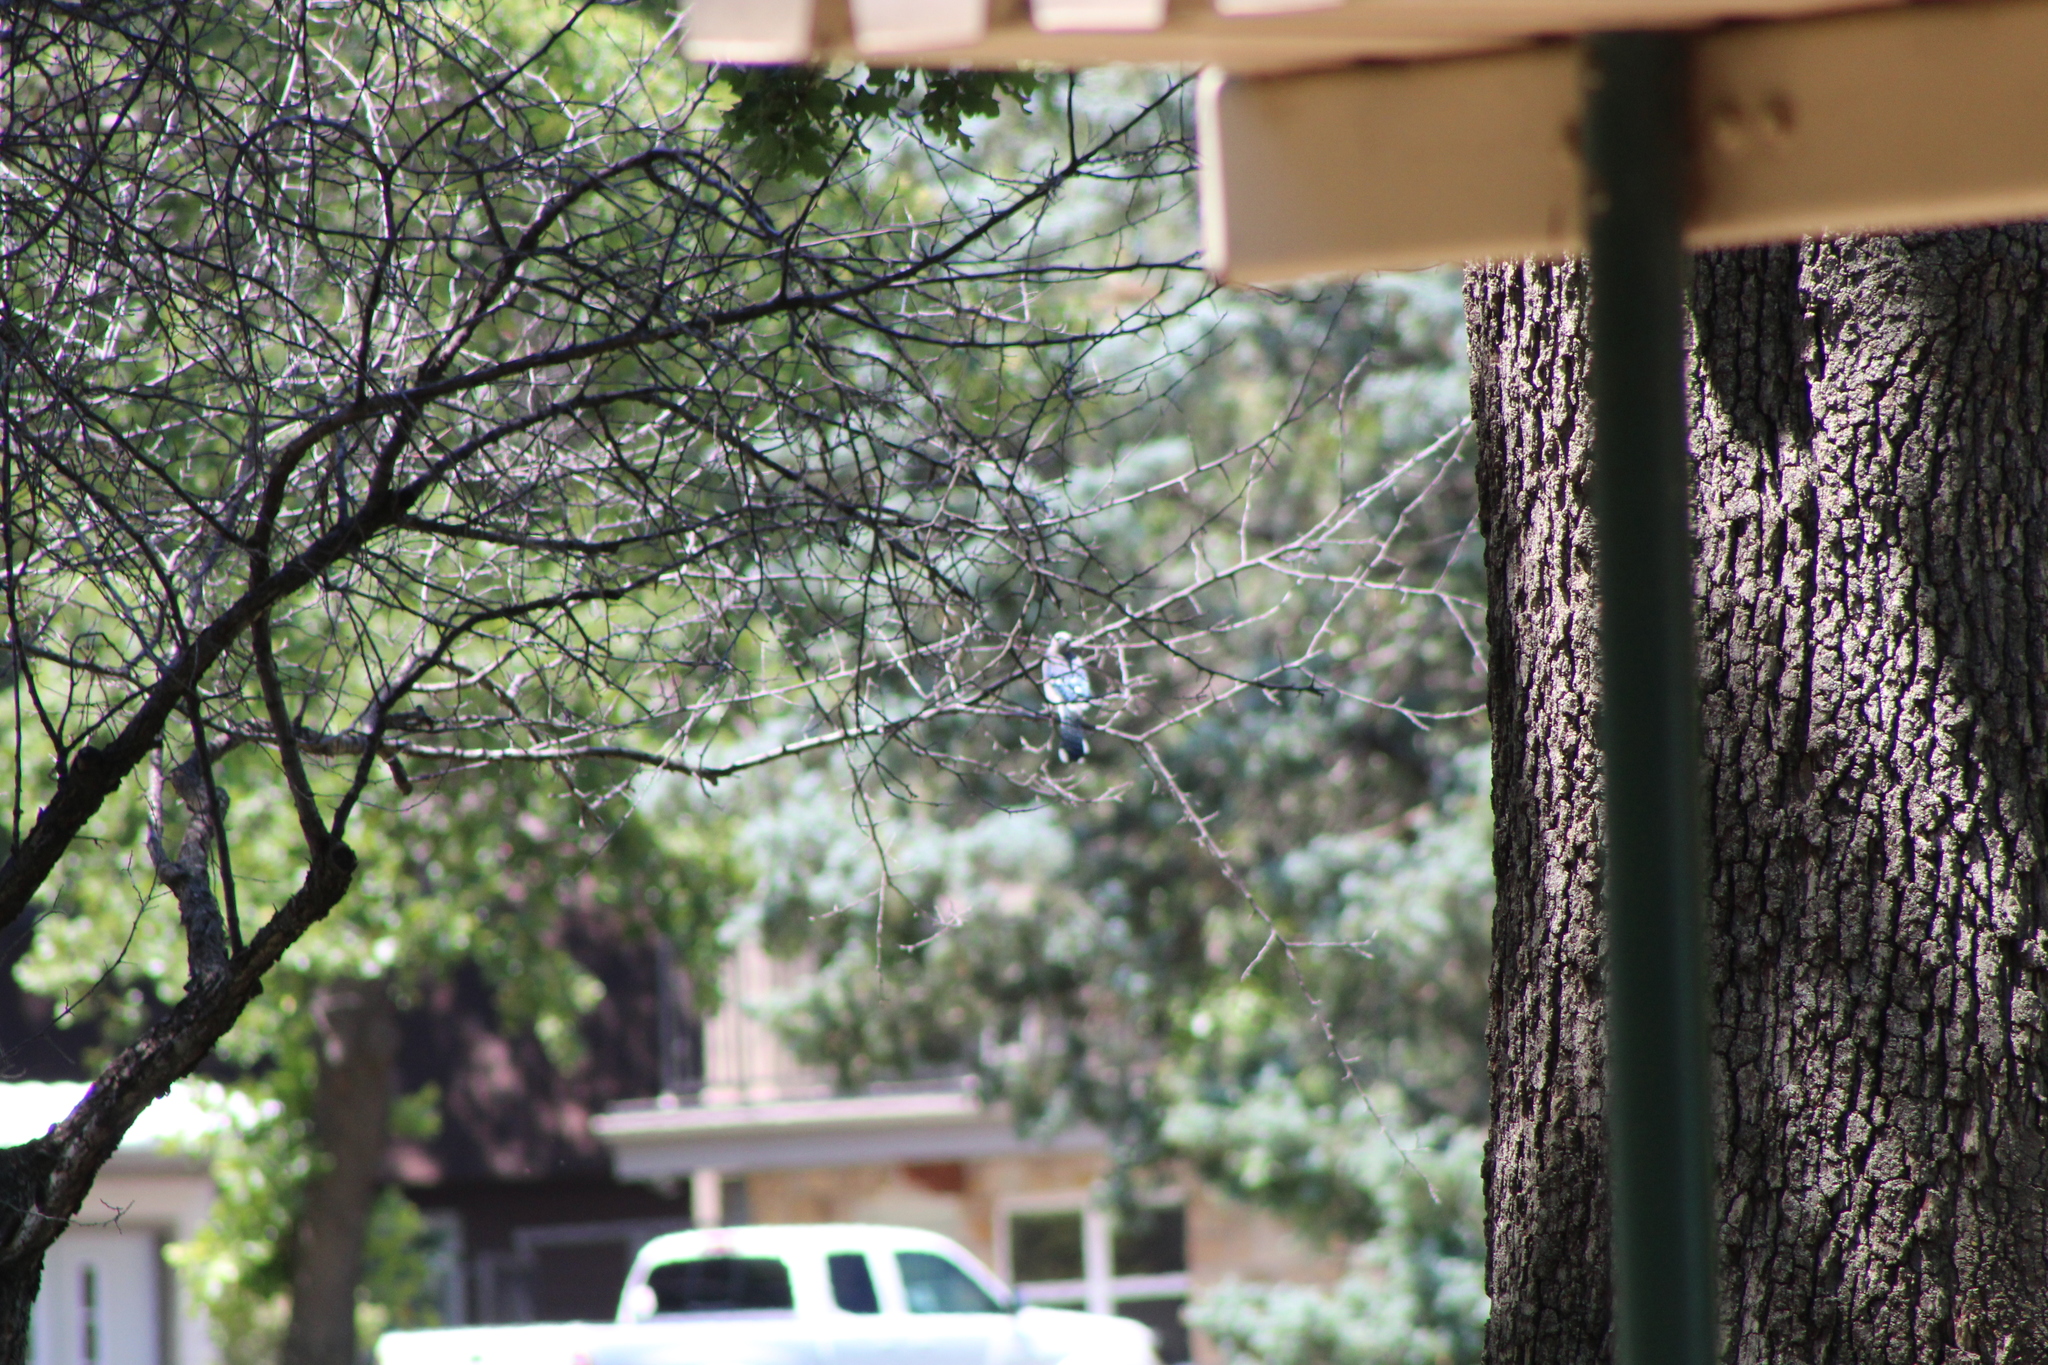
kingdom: Animalia
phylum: Chordata
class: Aves
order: Passeriformes
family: Corvidae
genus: Cyanocitta
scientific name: Cyanocitta cristata
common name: Blue jay
